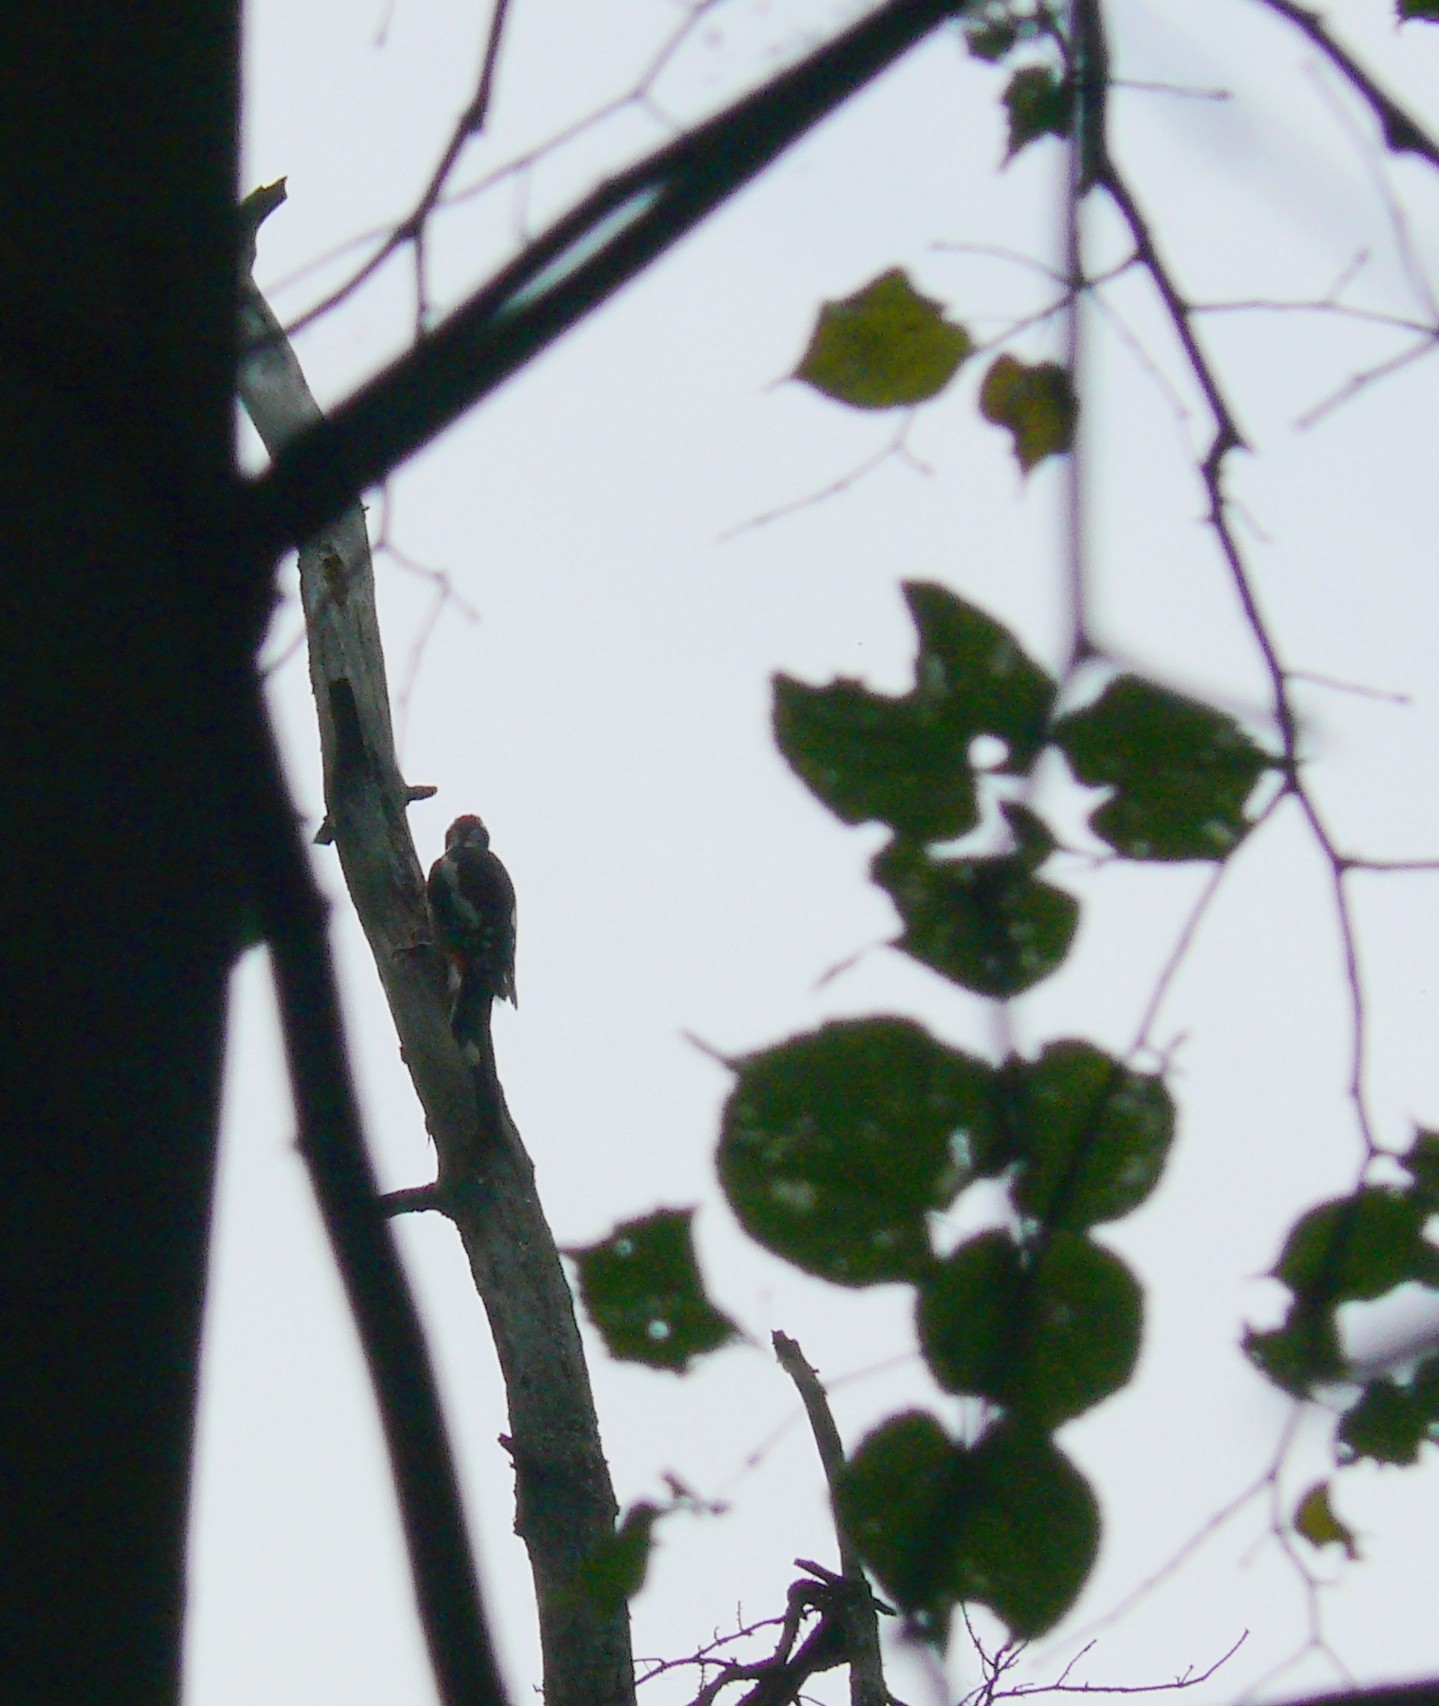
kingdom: Animalia
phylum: Chordata
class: Aves
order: Piciformes
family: Picidae
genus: Dendrocopos
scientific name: Dendrocopos major
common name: Great spotted woodpecker
